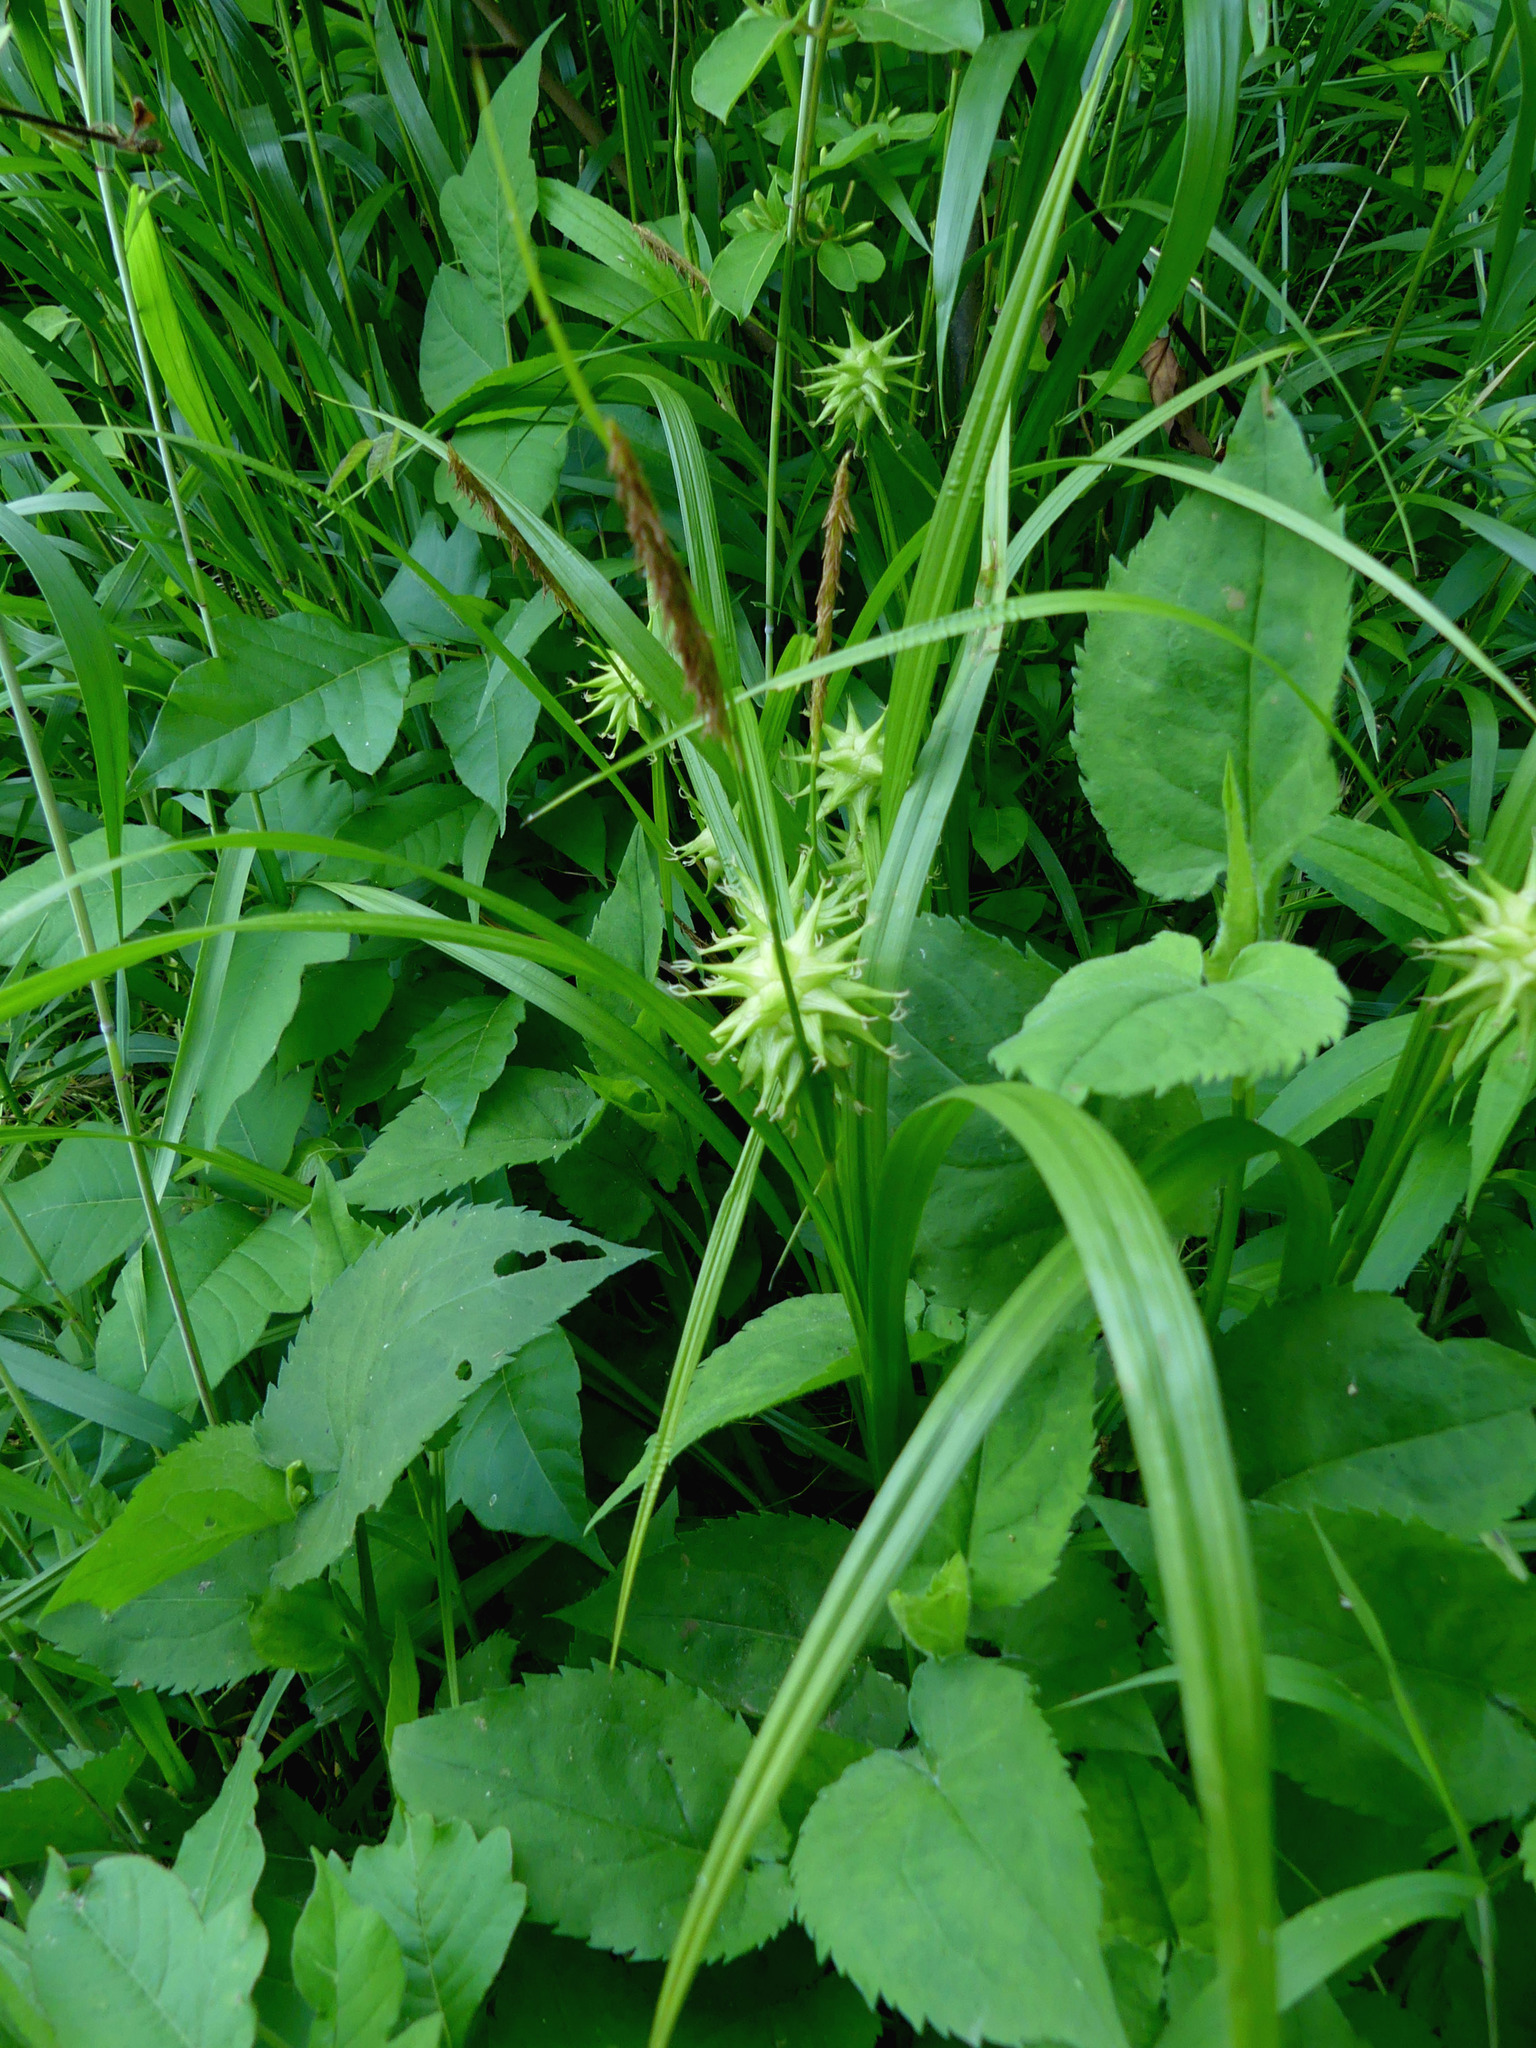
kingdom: Plantae
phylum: Tracheophyta
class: Liliopsida
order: Poales
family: Cyperaceae
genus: Carex
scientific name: Carex grayi
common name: Asa gray's sedge
